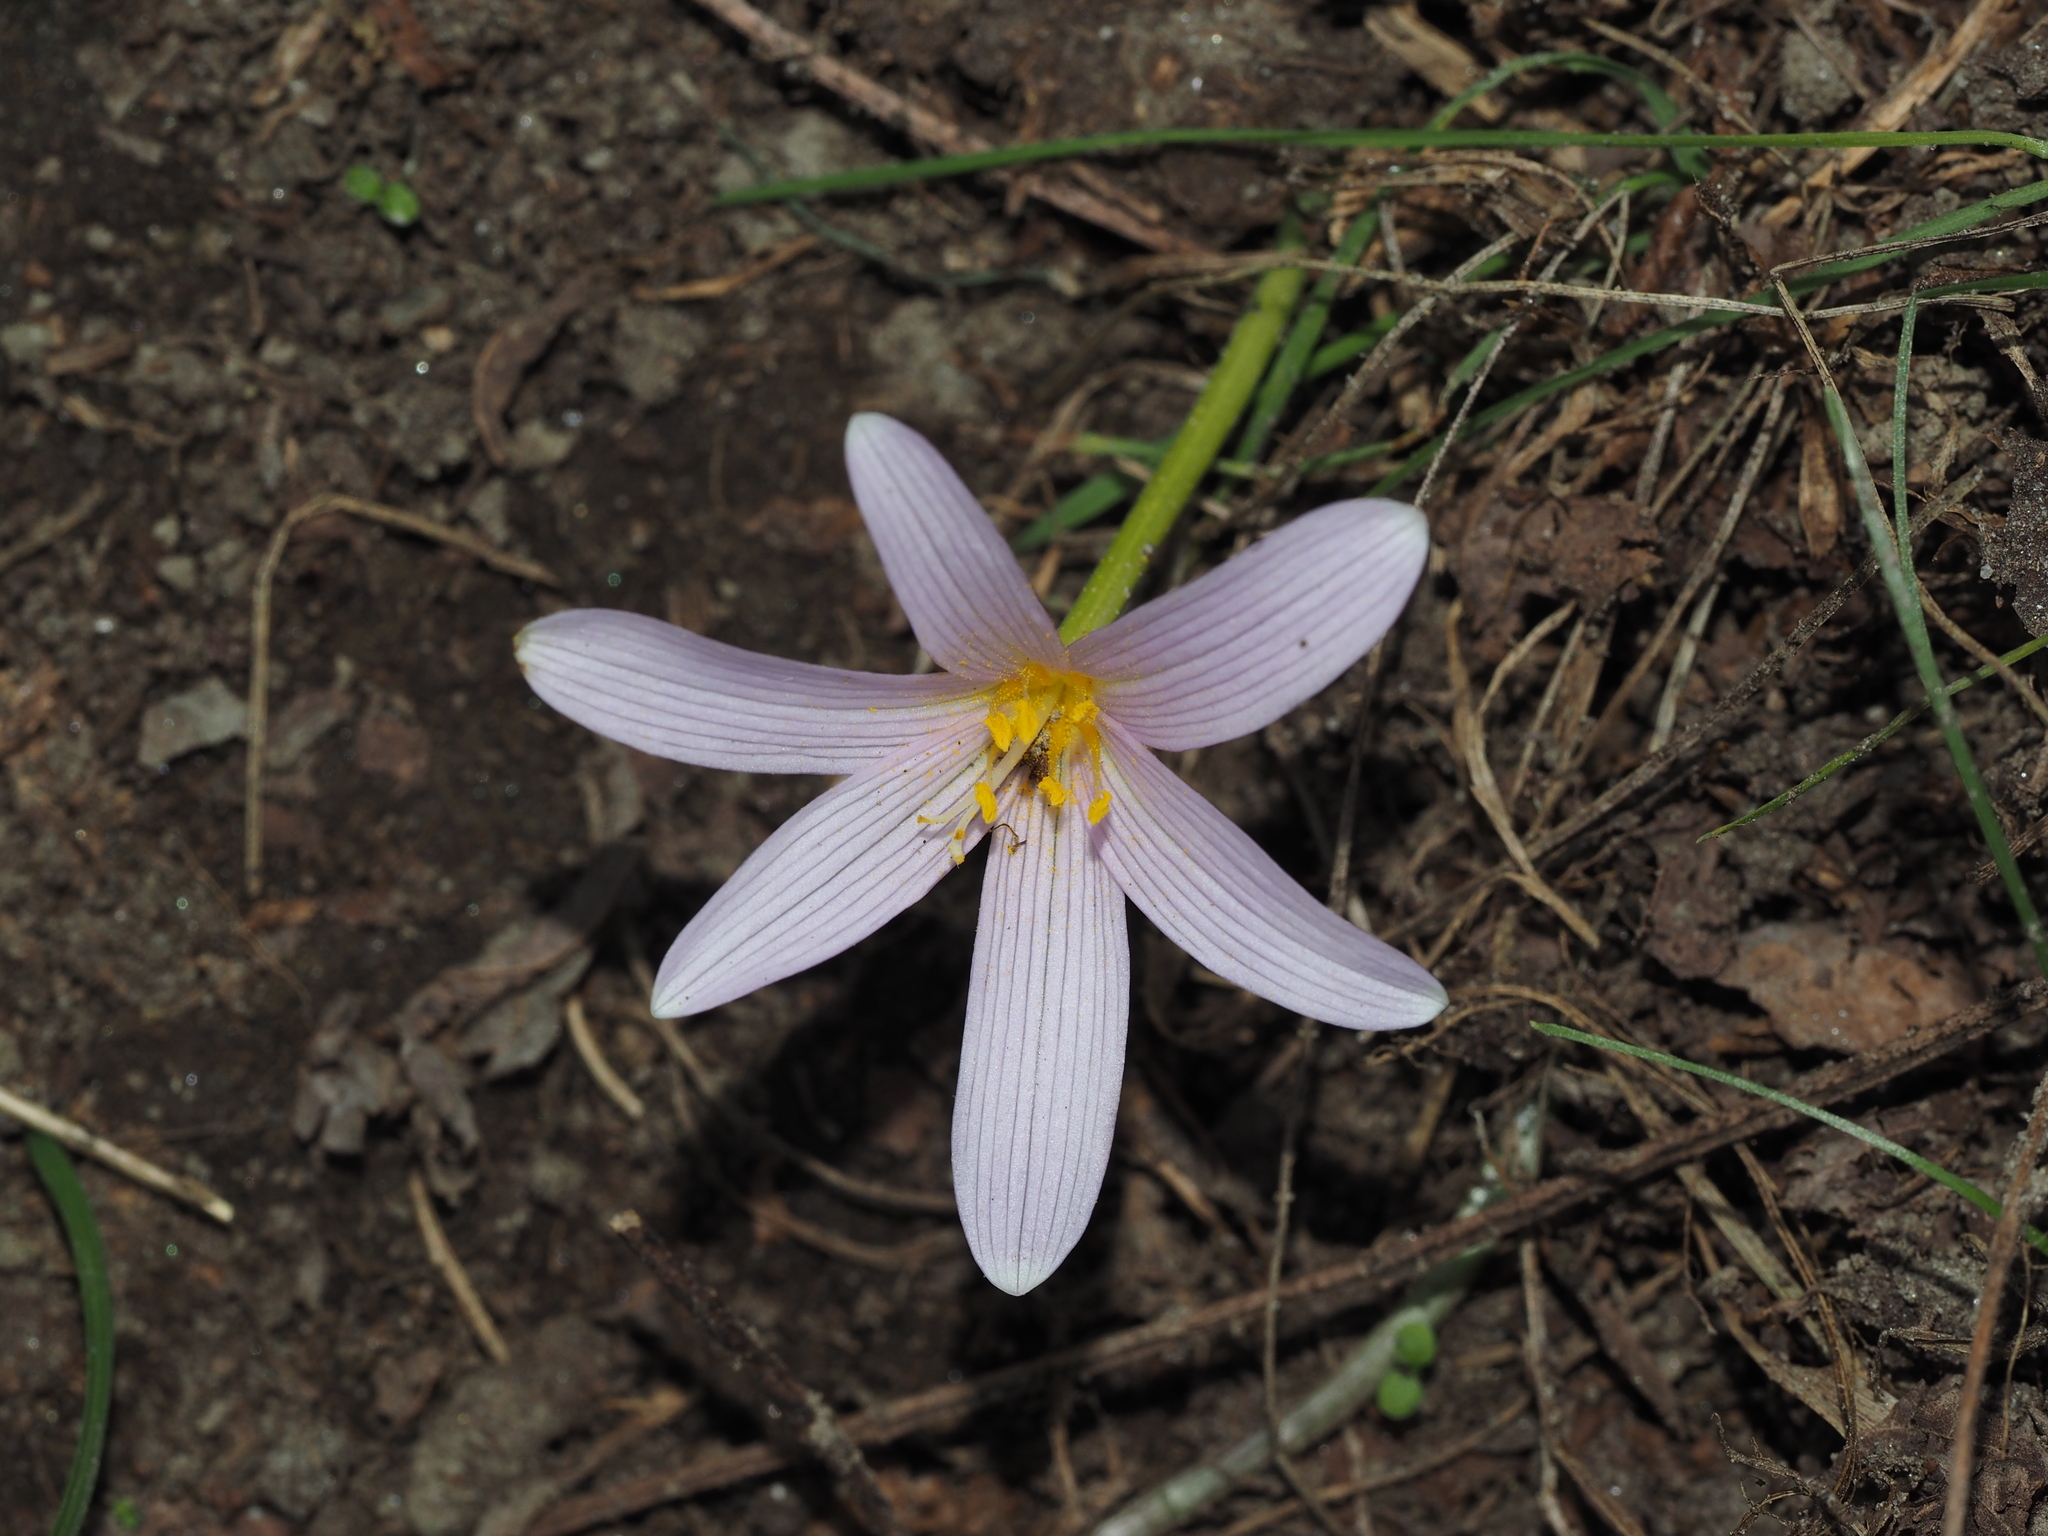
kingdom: Plantae
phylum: Tracheophyta
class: Liliopsida
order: Liliales
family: Colchicaceae
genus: Colchicum
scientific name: Colchicum alpinum
